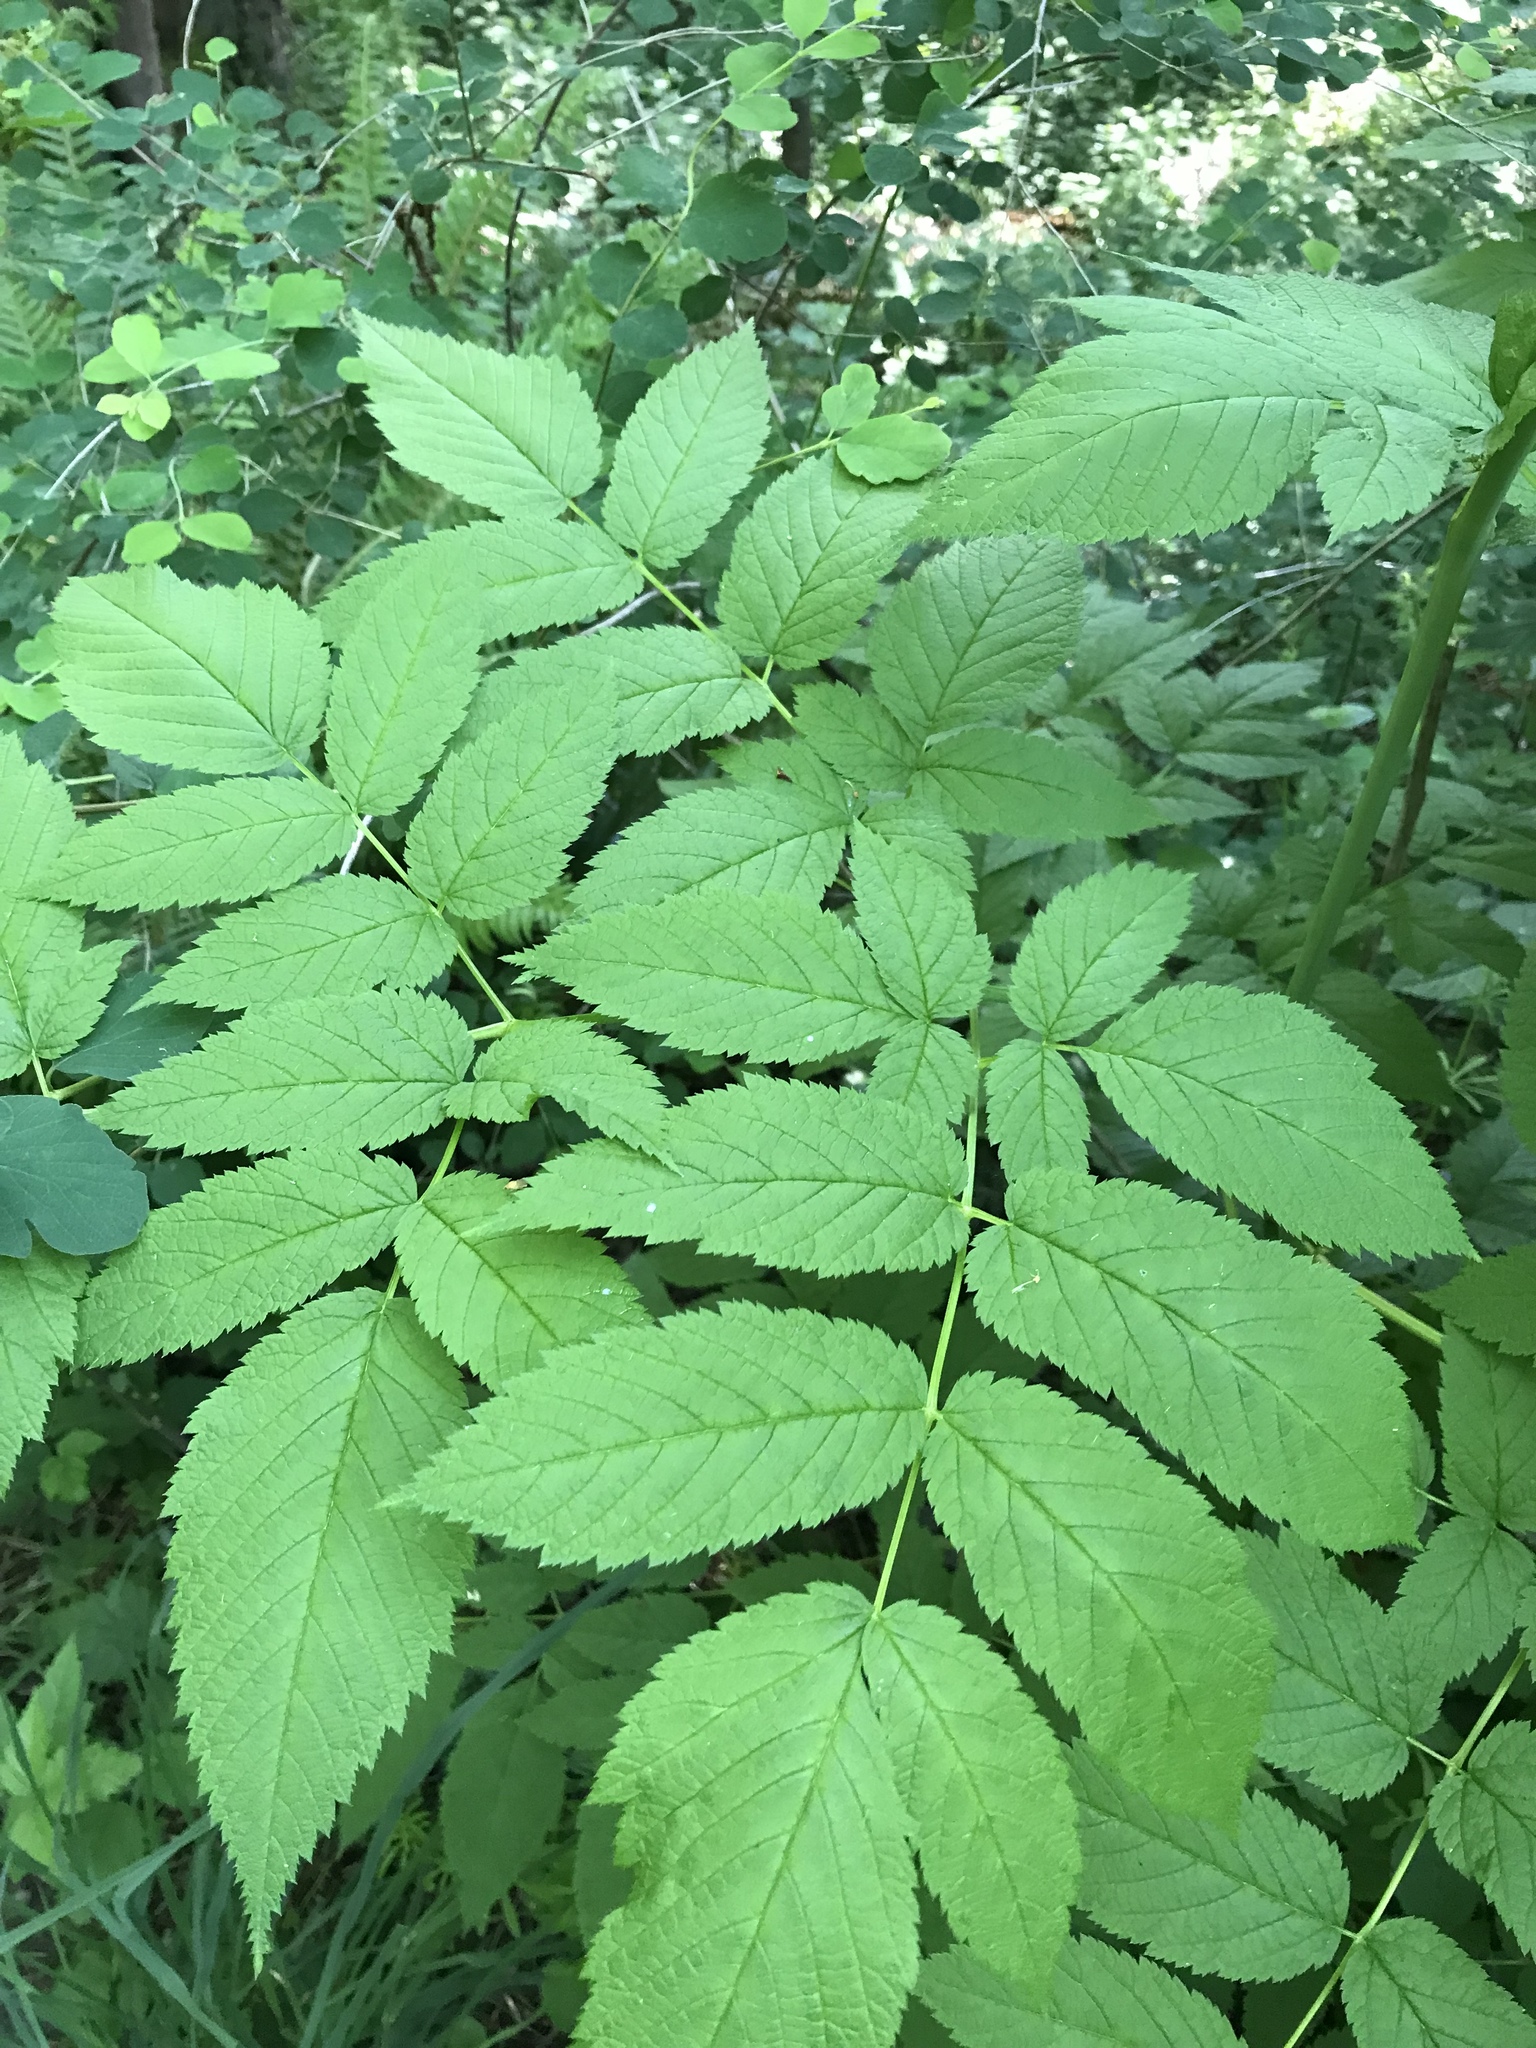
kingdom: Plantae
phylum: Tracheophyta
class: Magnoliopsida
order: Rosales
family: Rosaceae
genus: Aruncus
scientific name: Aruncus dioicus
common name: Buck's-beard
